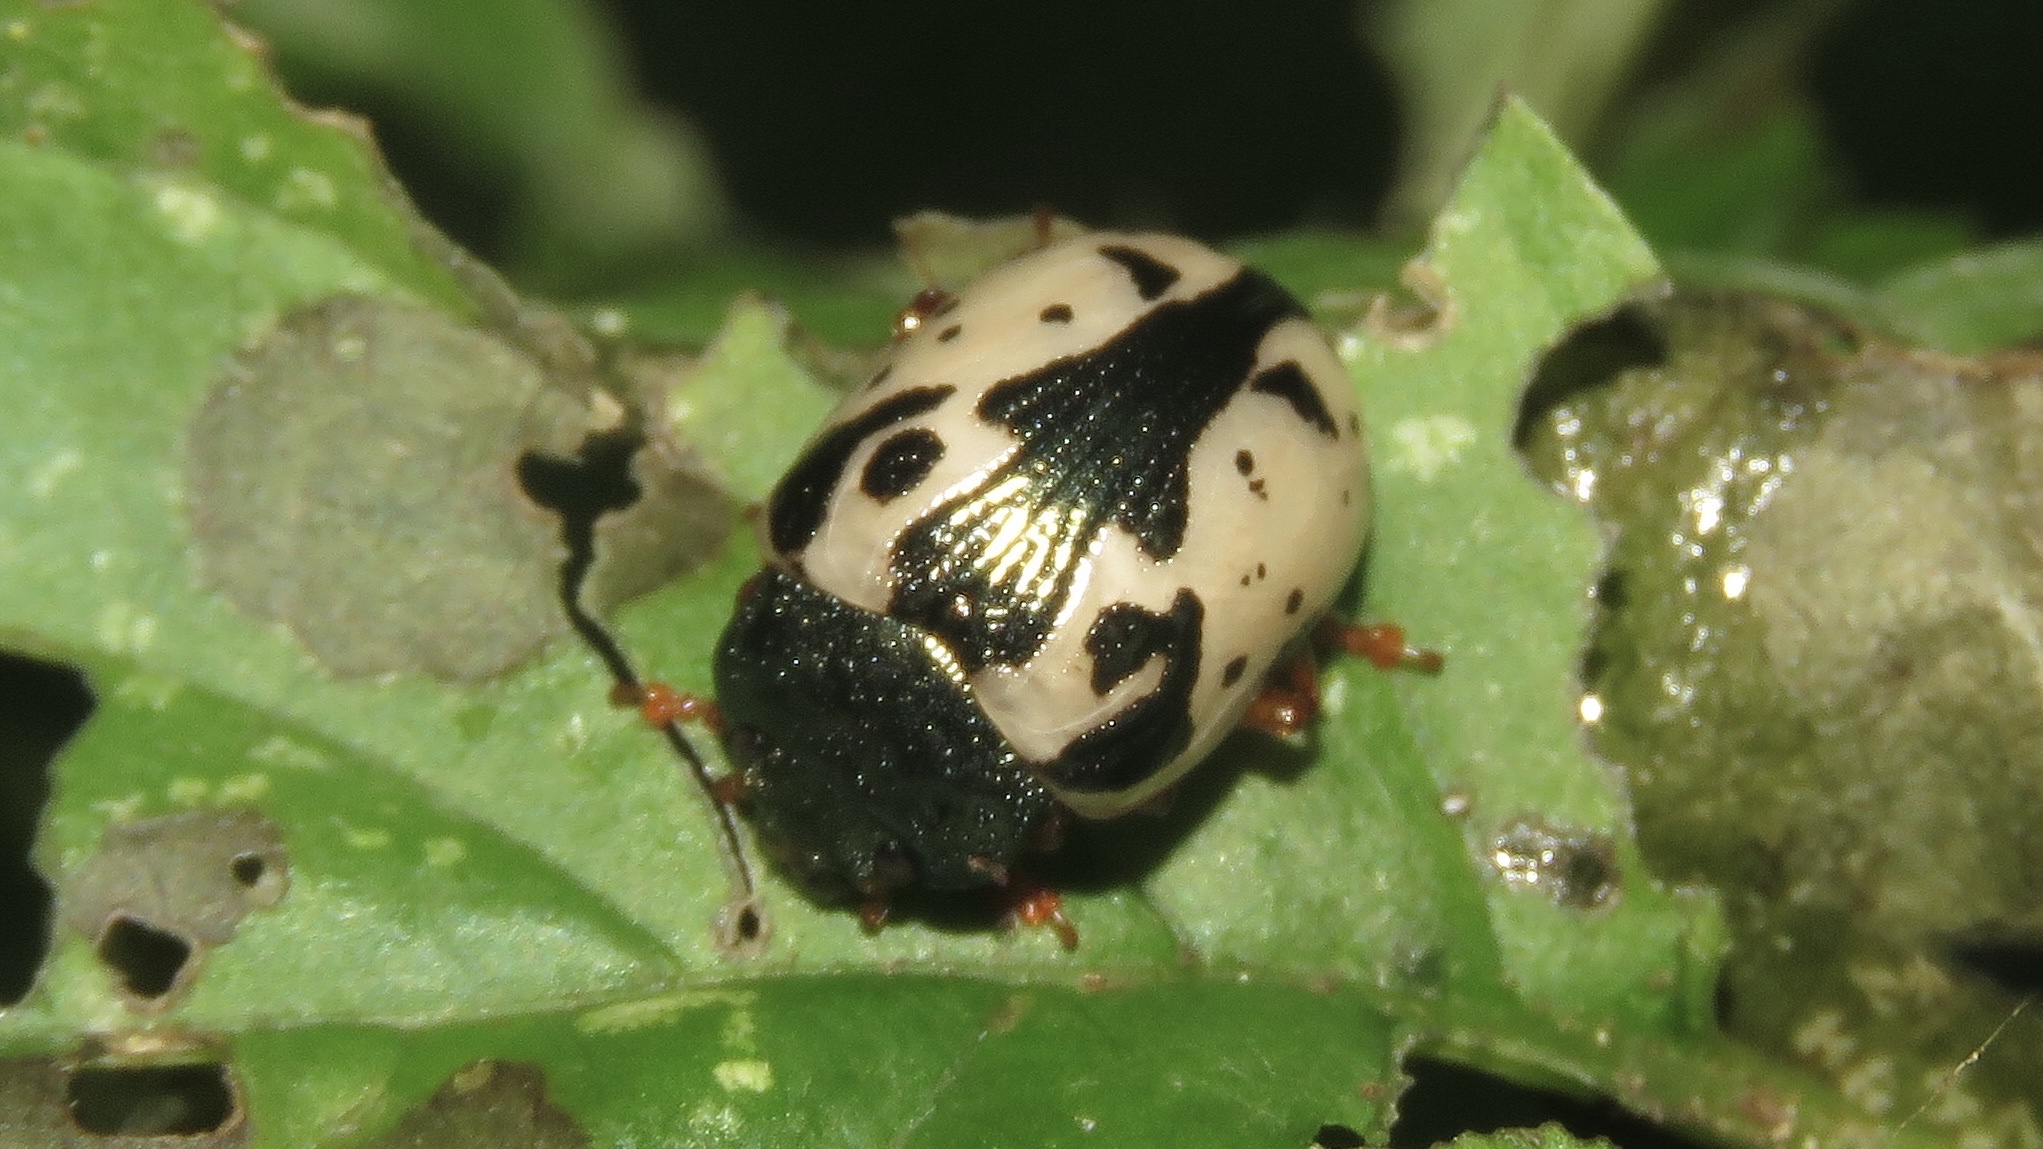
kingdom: Animalia
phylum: Arthropoda
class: Insecta
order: Coleoptera
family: Chrysomelidae
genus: Calligrapha
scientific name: Calligrapha confluens
